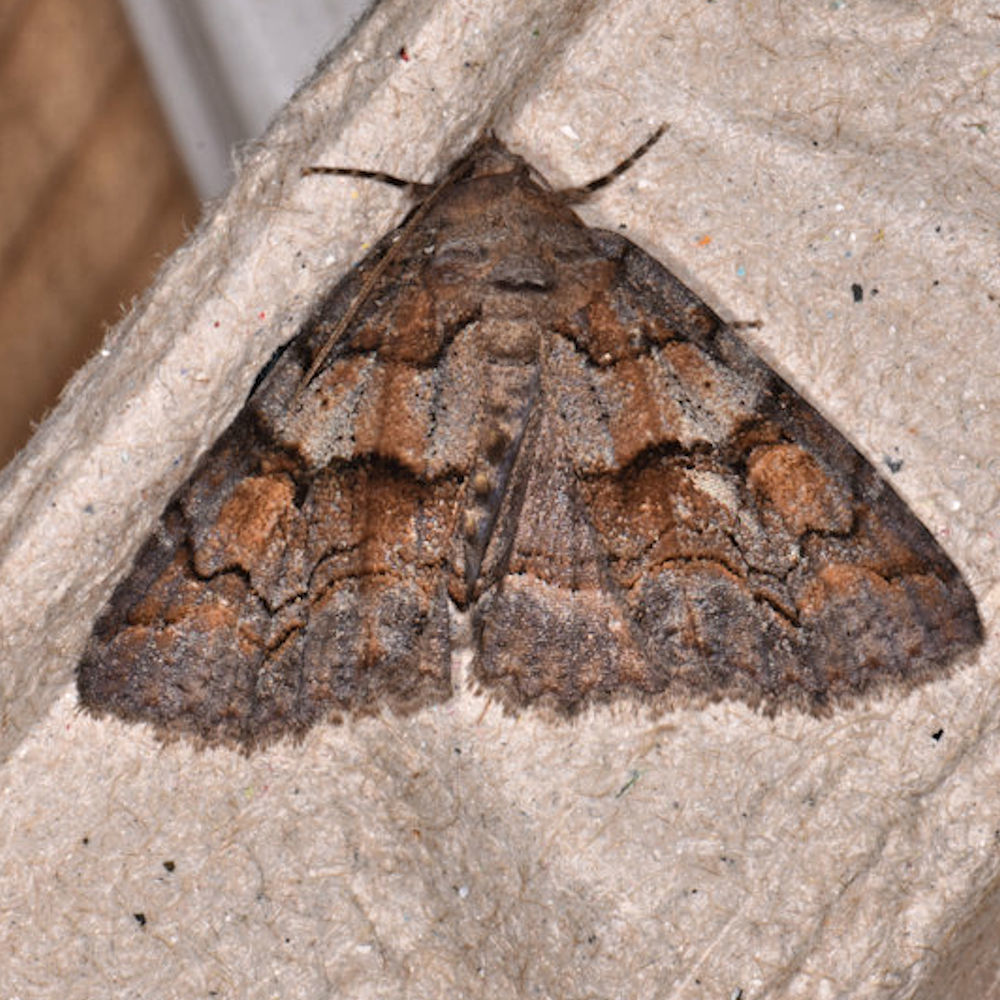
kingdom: Animalia
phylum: Arthropoda
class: Insecta
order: Lepidoptera
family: Erebidae
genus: Zale
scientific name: Zale helata
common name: Brown-spotted zale moth
